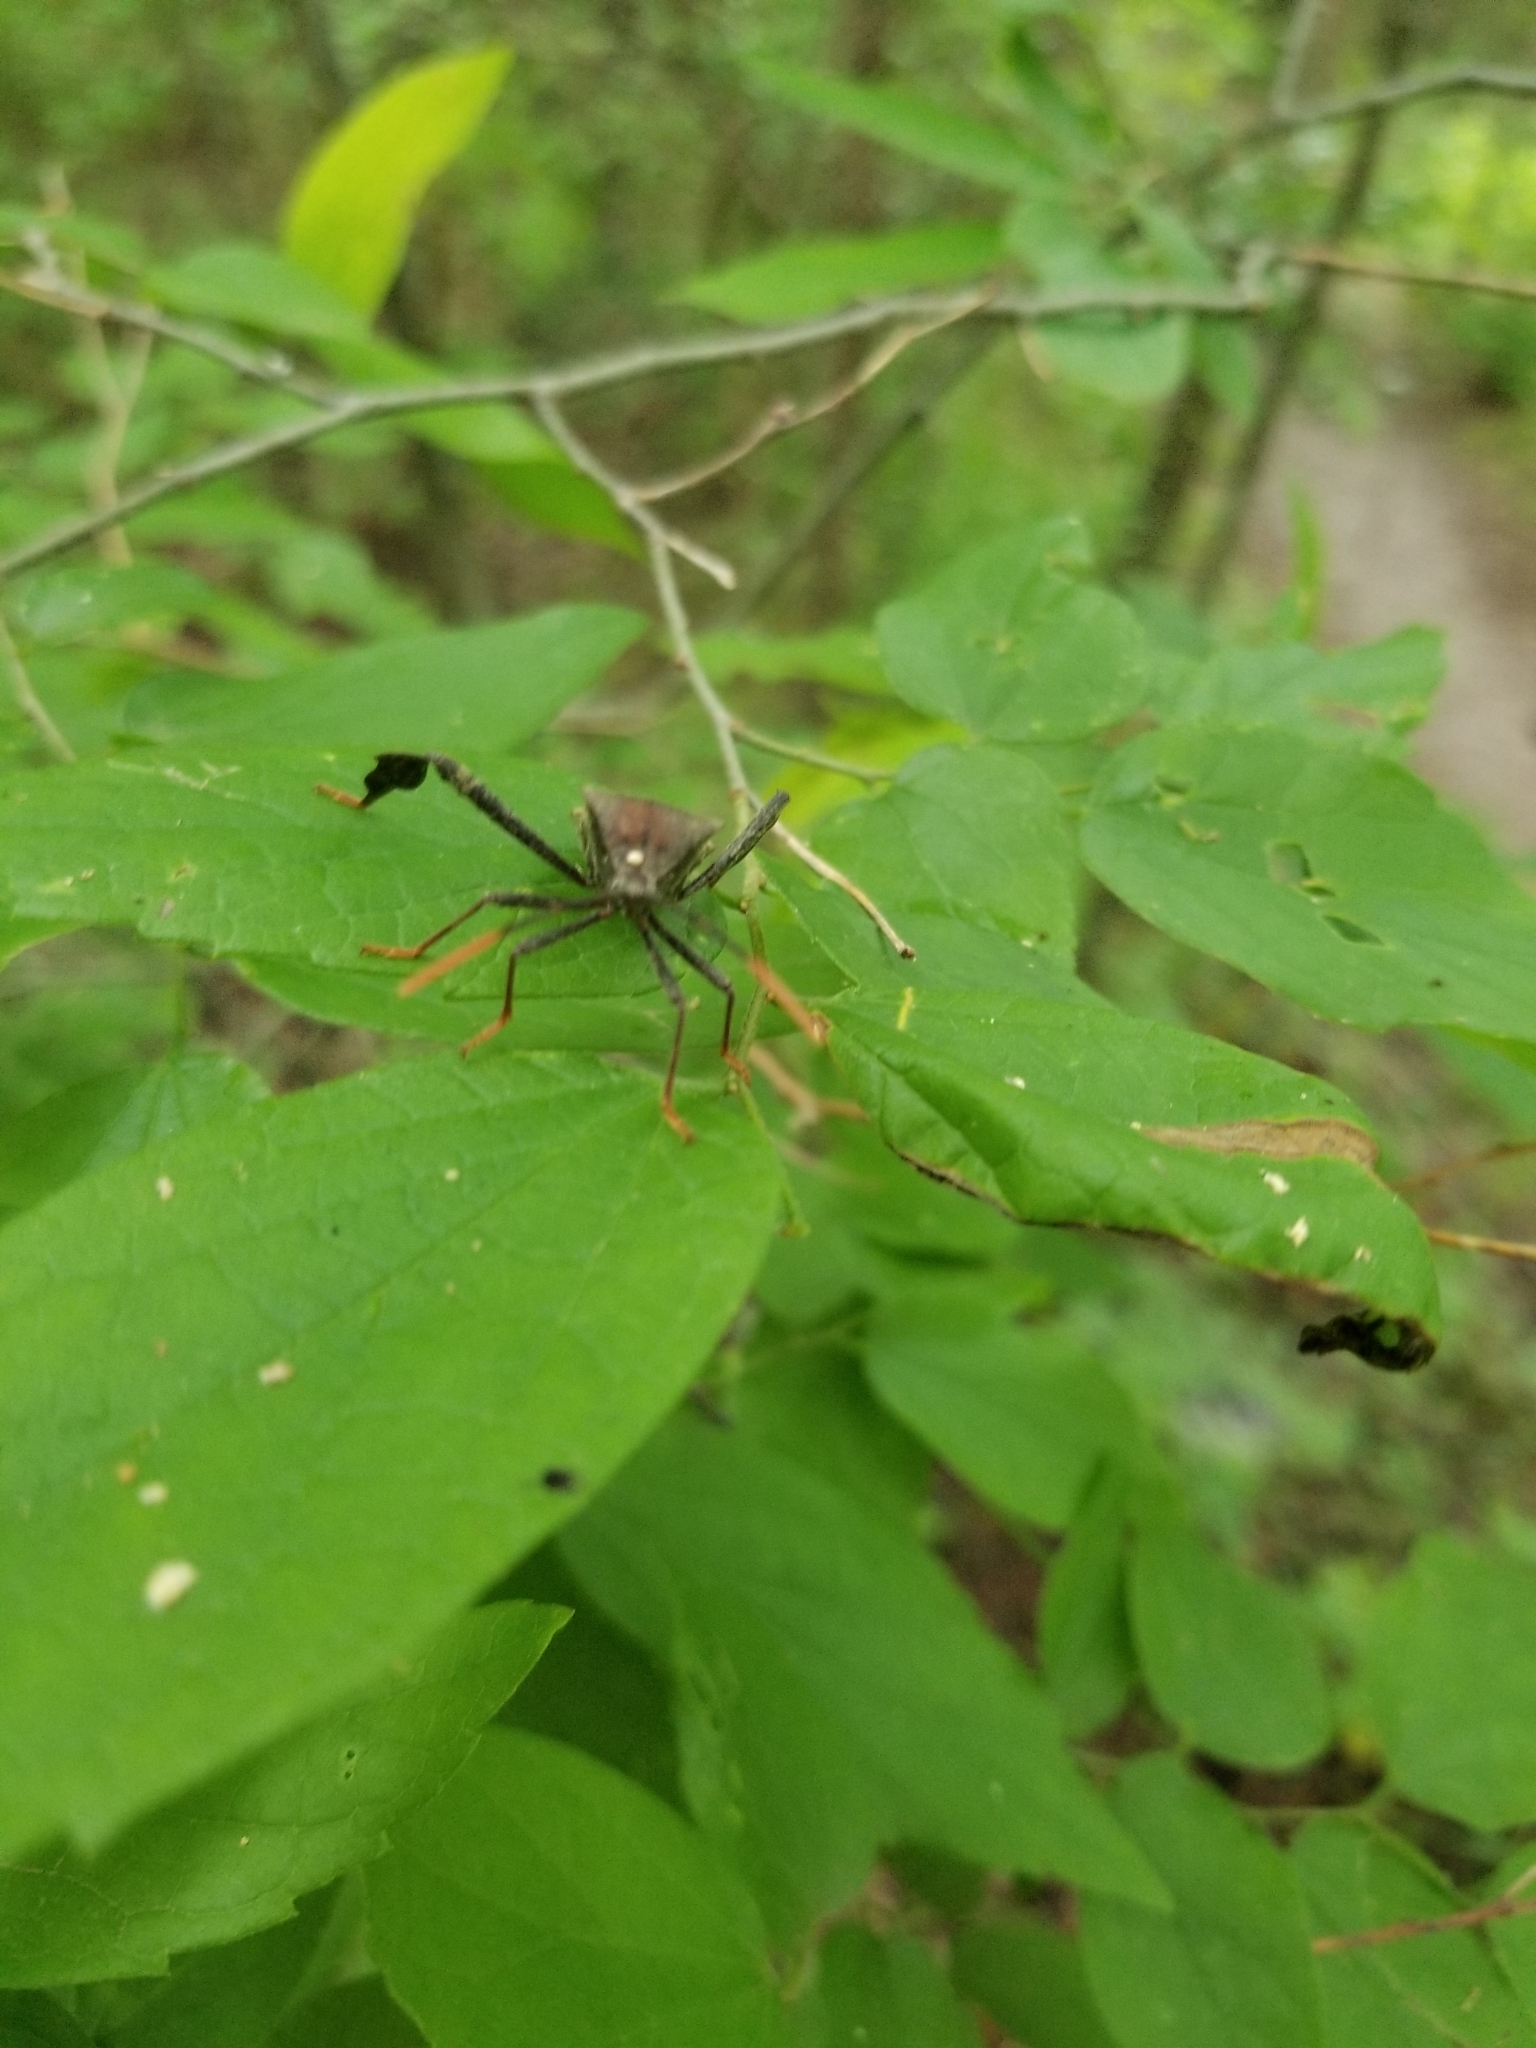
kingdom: Animalia
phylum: Arthropoda
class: Insecta
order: Hemiptera
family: Coreidae
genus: Acanthocephala
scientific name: Acanthocephala terminalis
